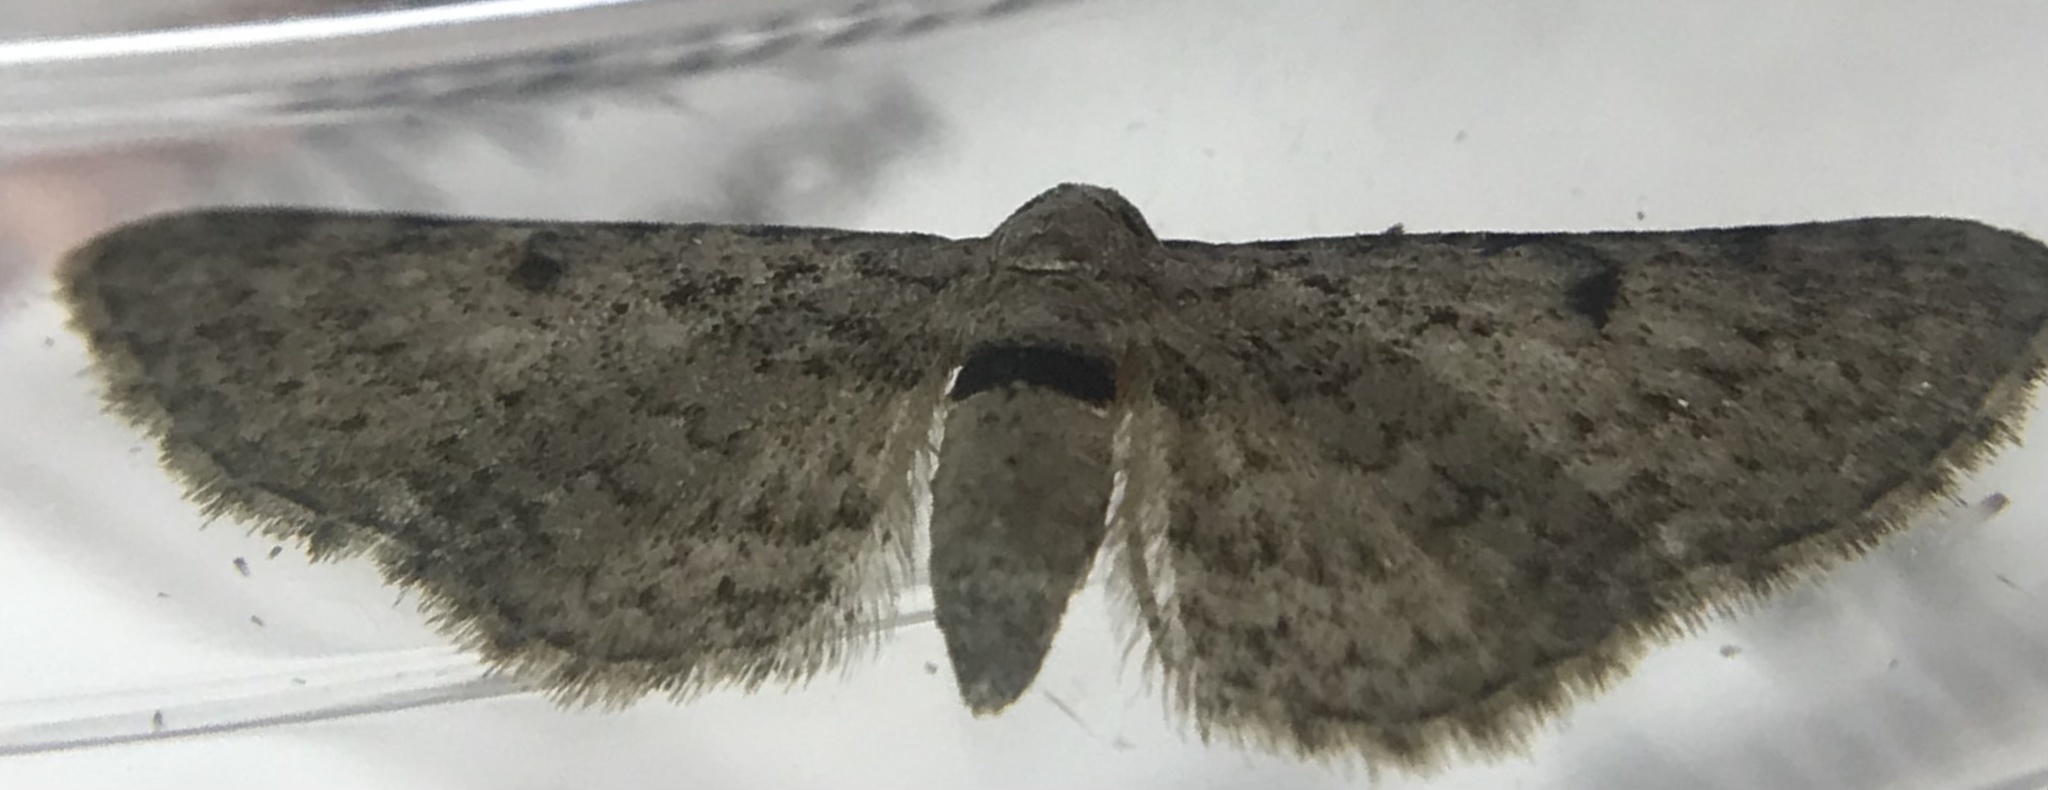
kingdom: Animalia
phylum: Arthropoda
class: Insecta
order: Lepidoptera
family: Geometridae
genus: Eupithecia
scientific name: Eupithecia
